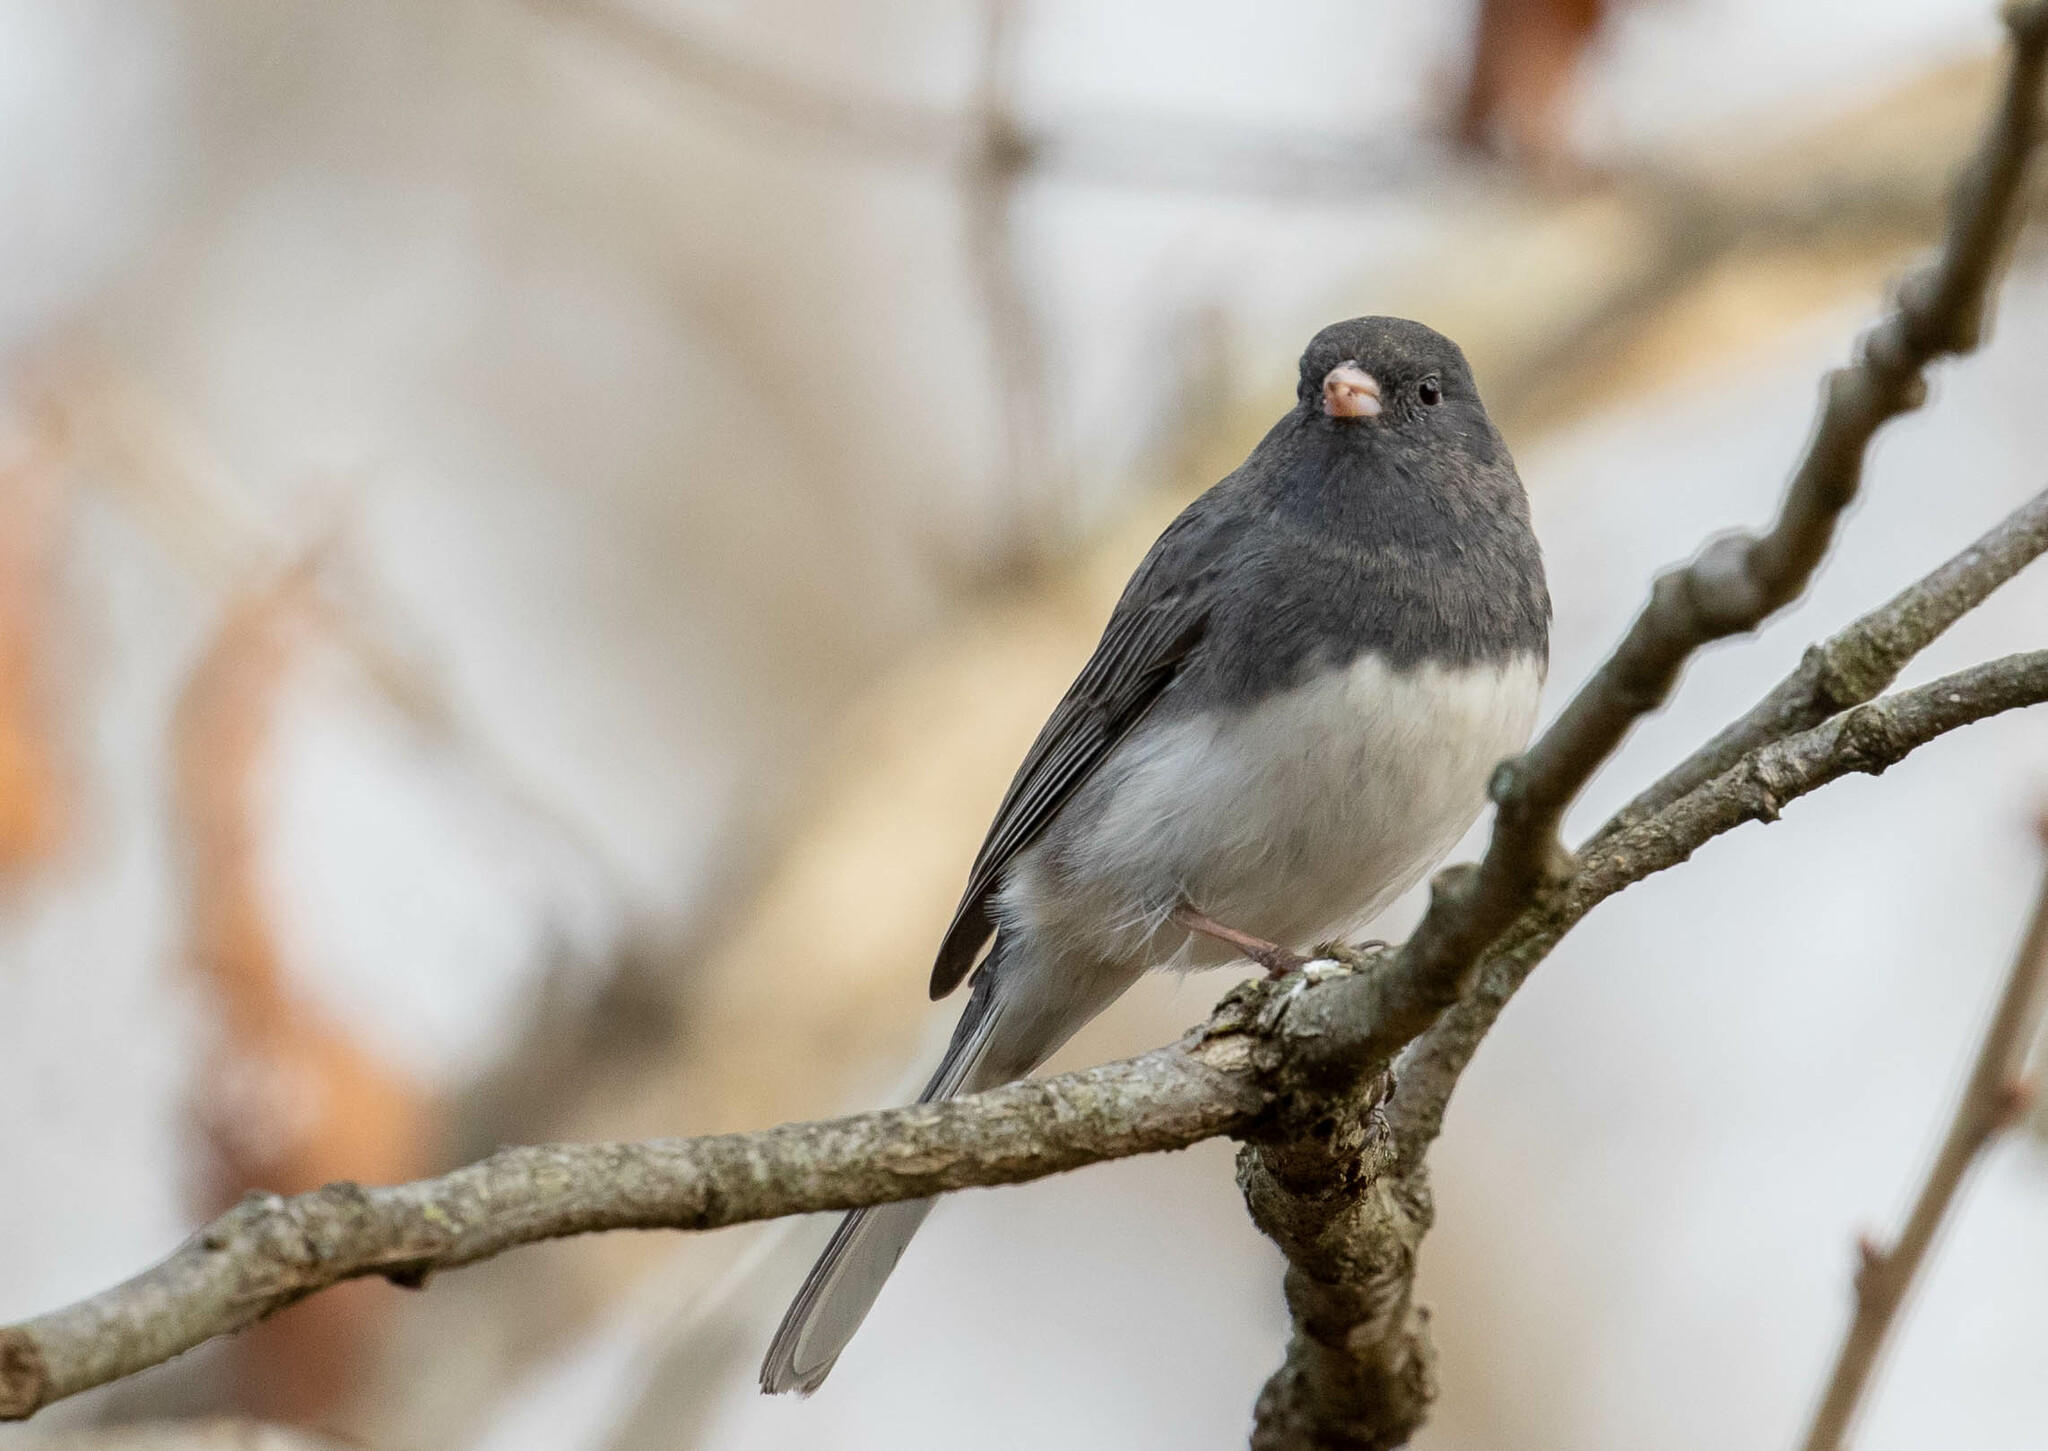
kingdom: Animalia
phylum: Chordata
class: Aves
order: Passeriformes
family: Passerellidae
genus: Junco
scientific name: Junco hyemalis
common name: Dark-eyed junco
